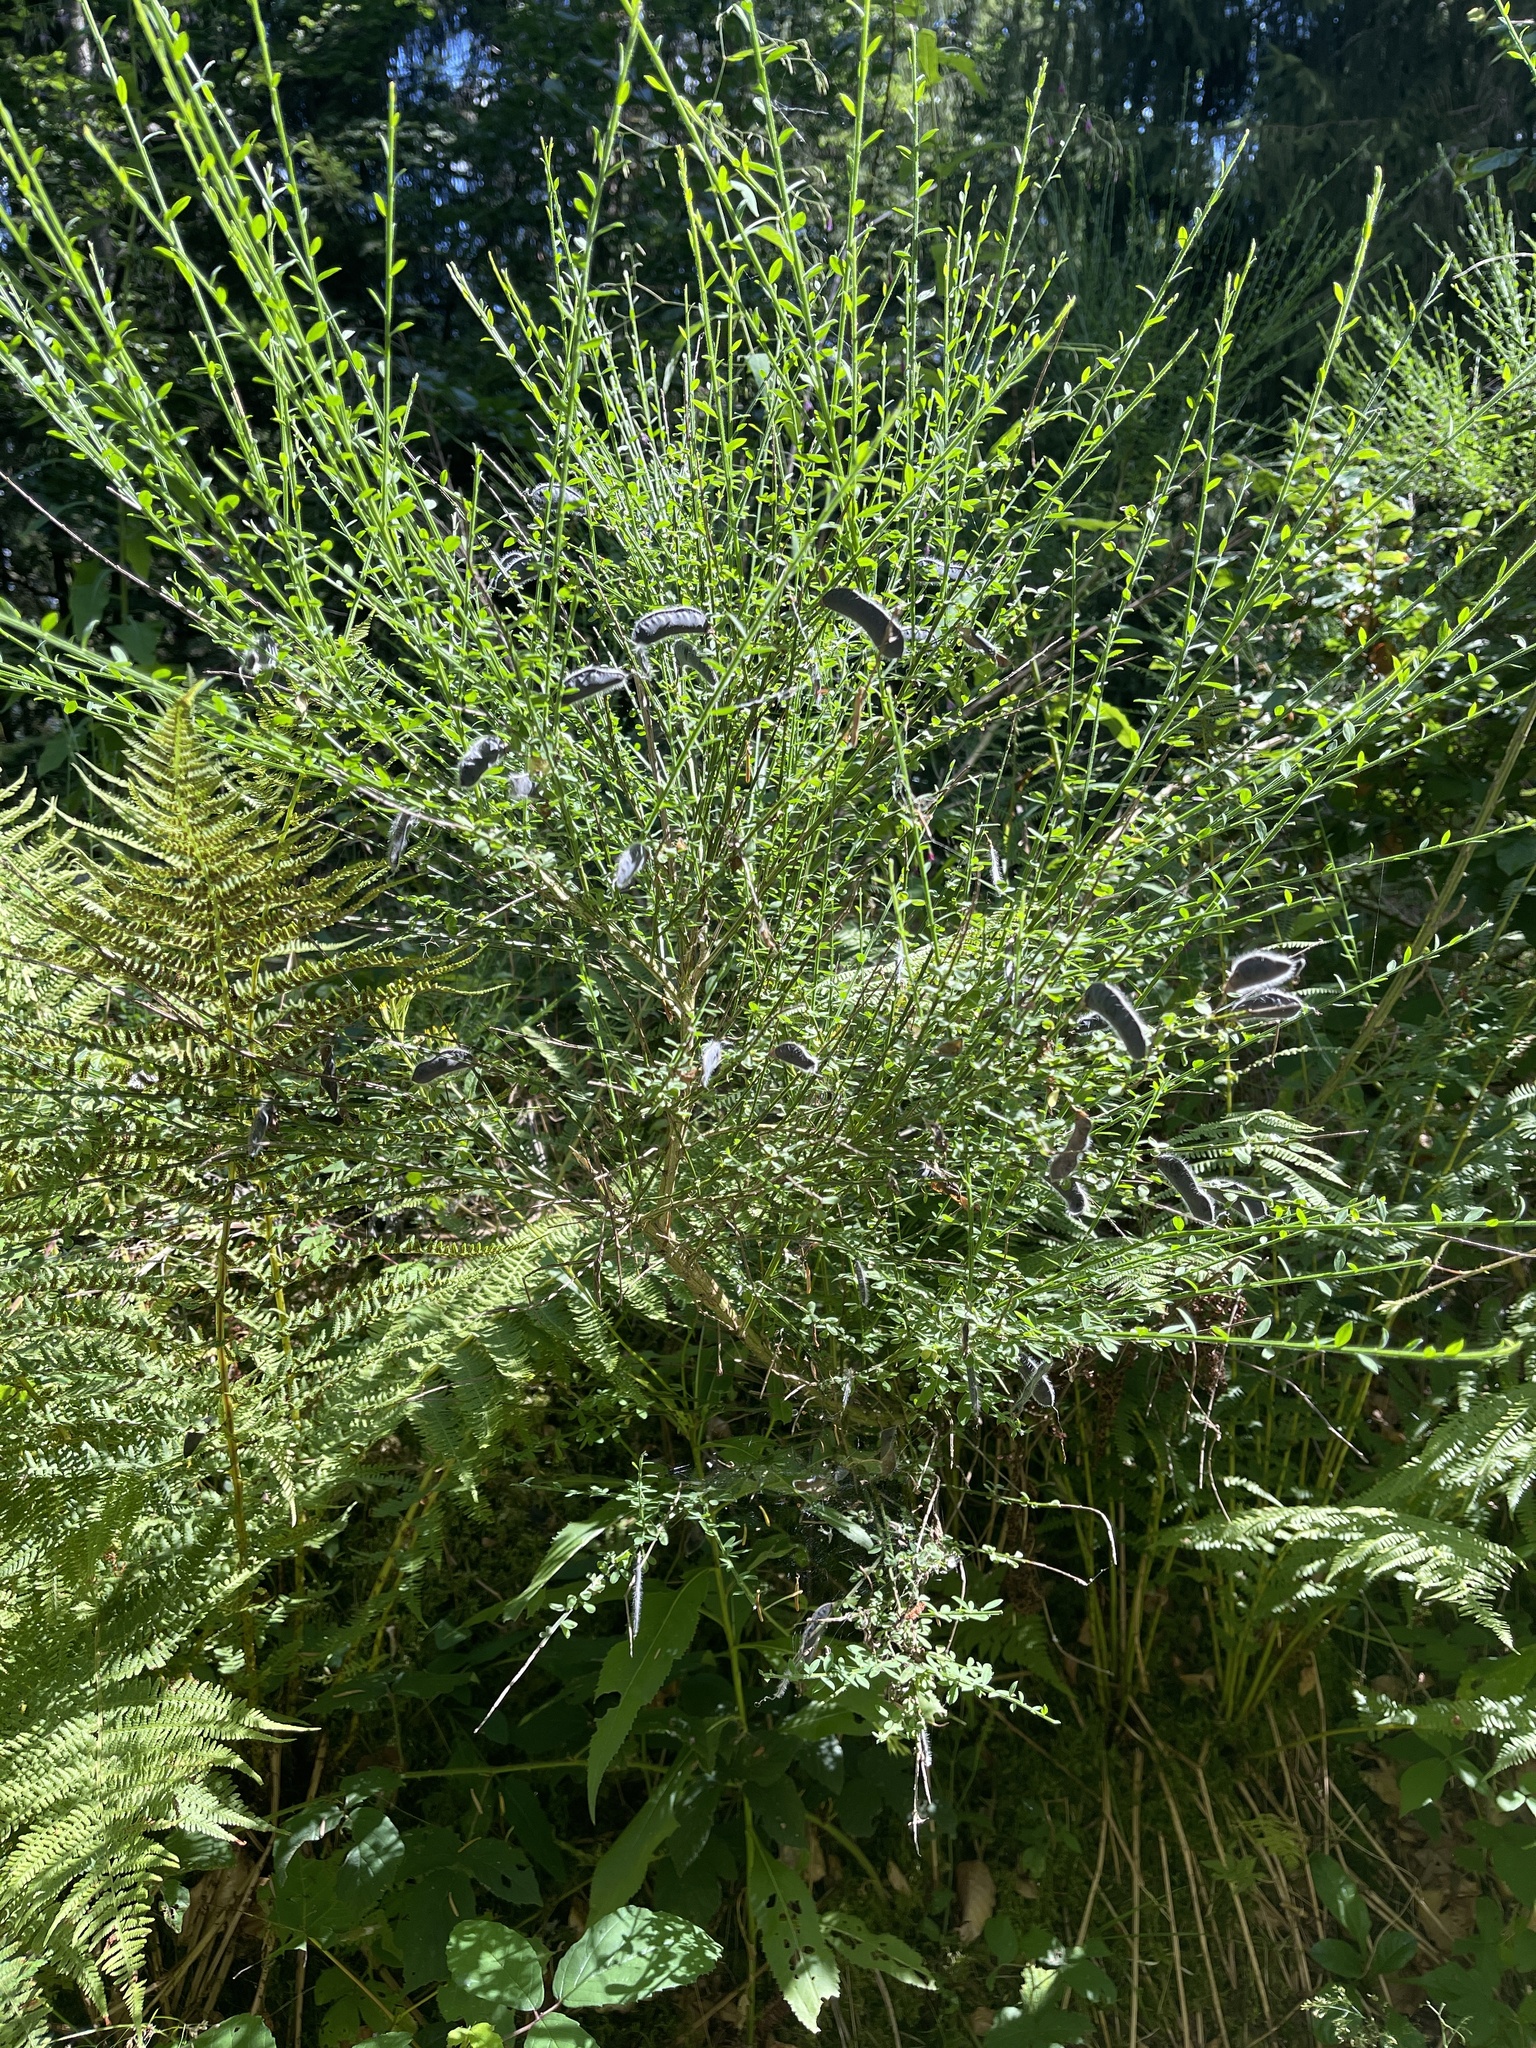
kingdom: Plantae
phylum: Tracheophyta
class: Magnoliopsida
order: Fabales
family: Fabaceae
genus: Cytisus
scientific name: Cytisus scoparius
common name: Scotch broom
